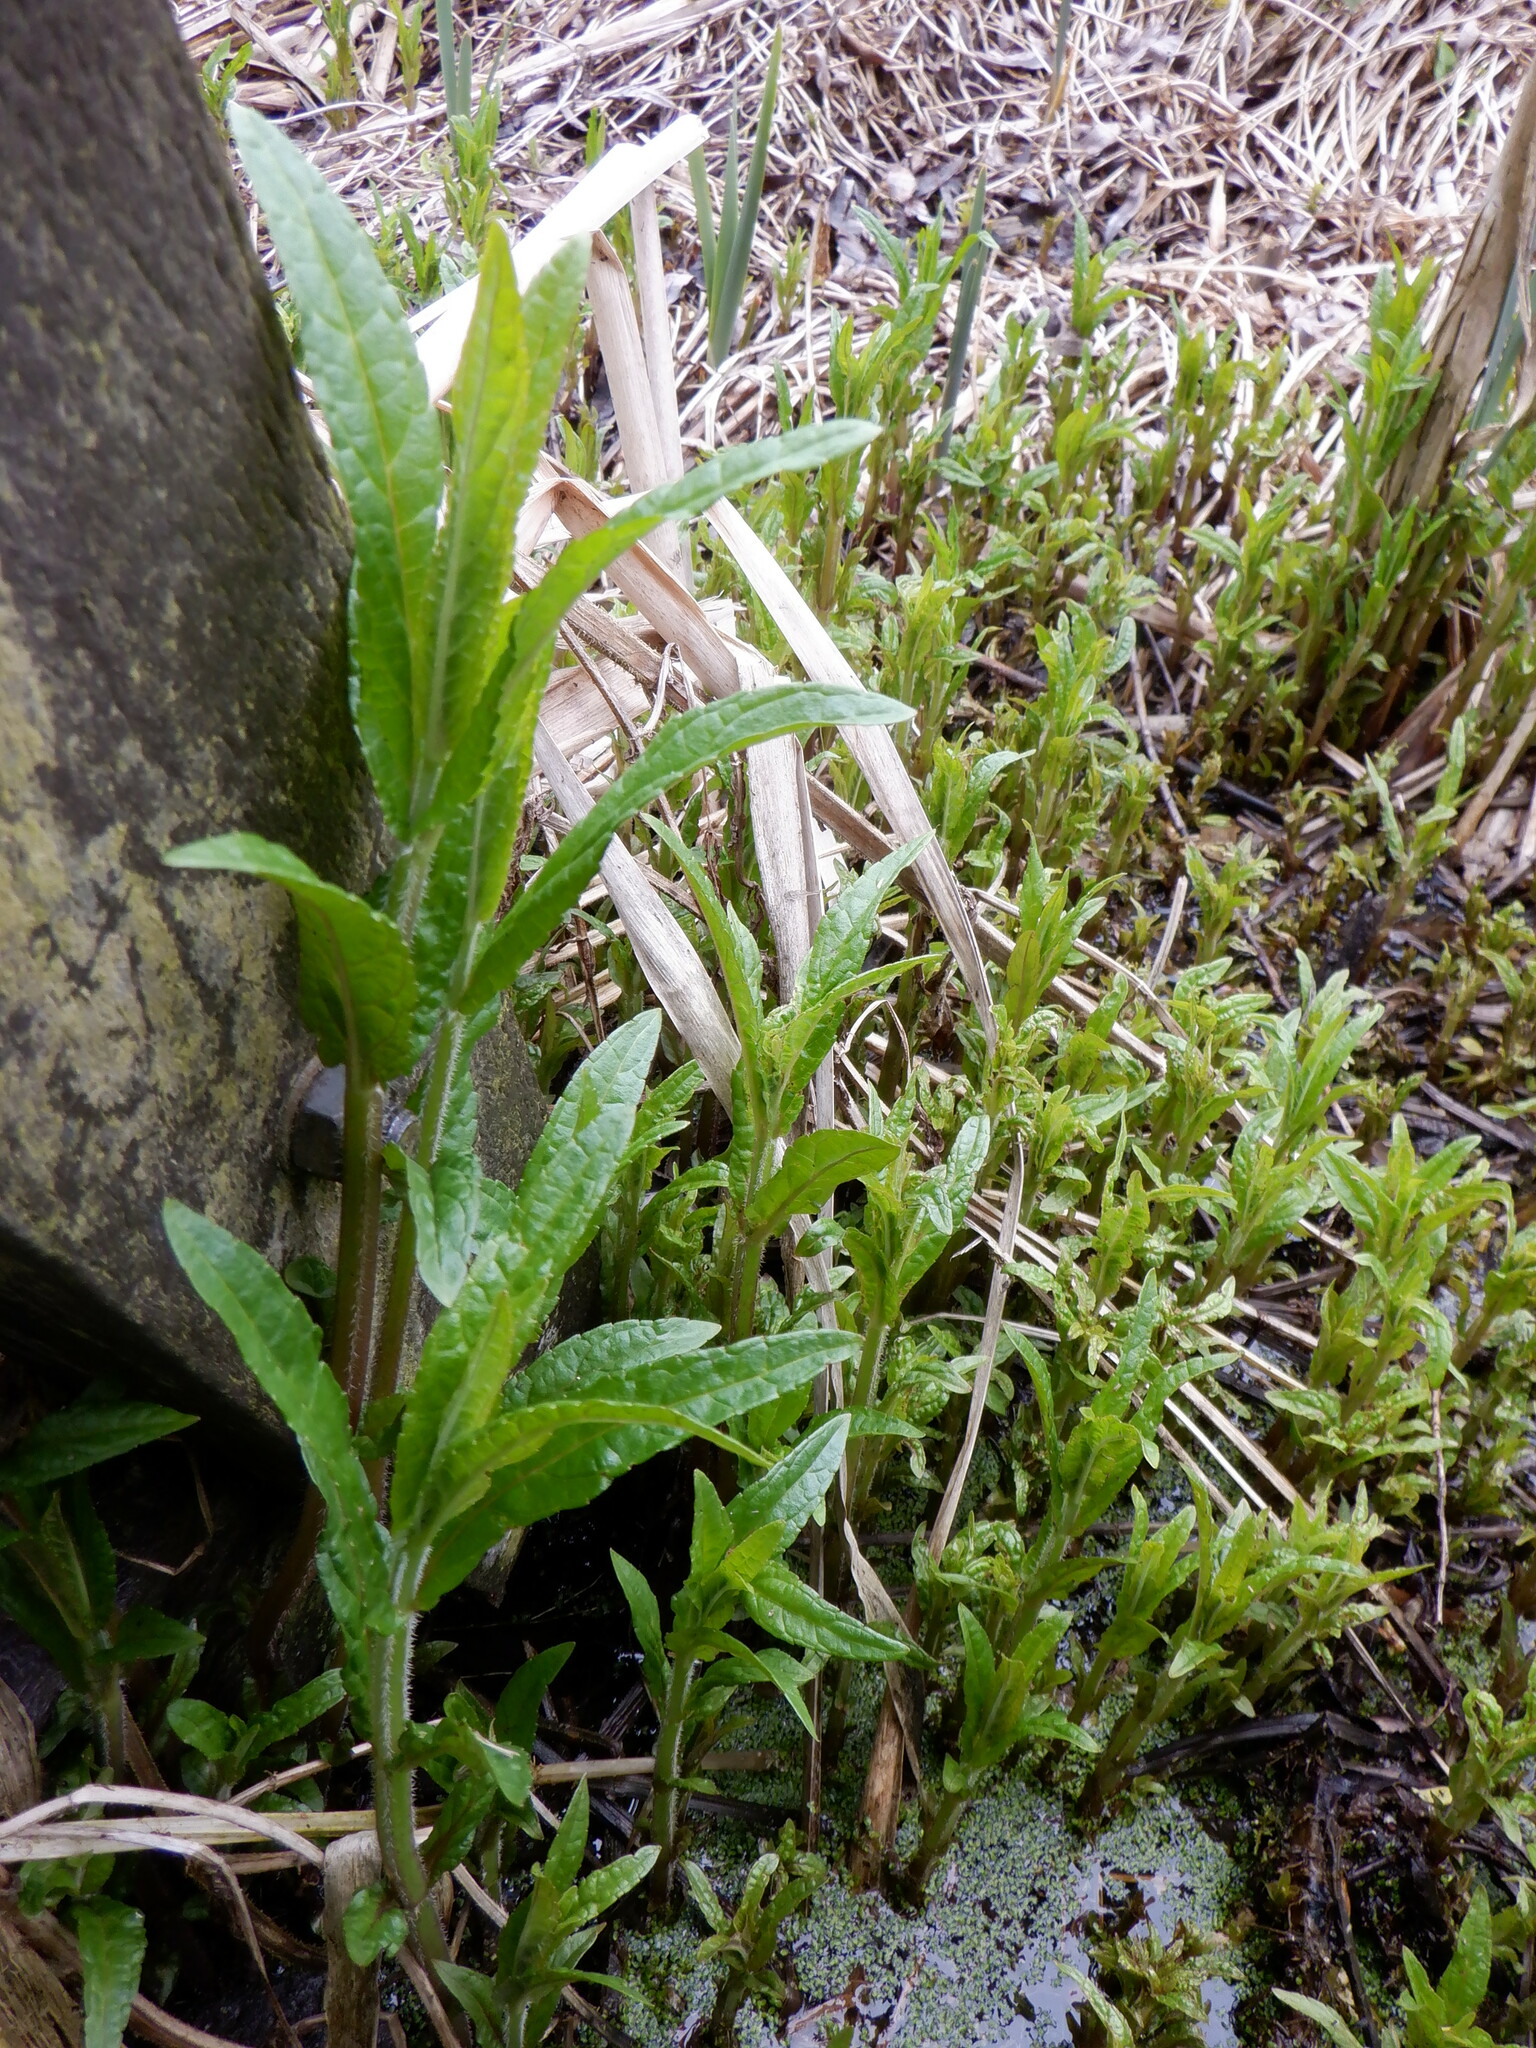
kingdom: Plantae
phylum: Tracheophyta
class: Magnoliopsida
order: Lamiales
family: Lamiaceae
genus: Stachys
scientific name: Stachys palustris
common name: Marsh woundwort
